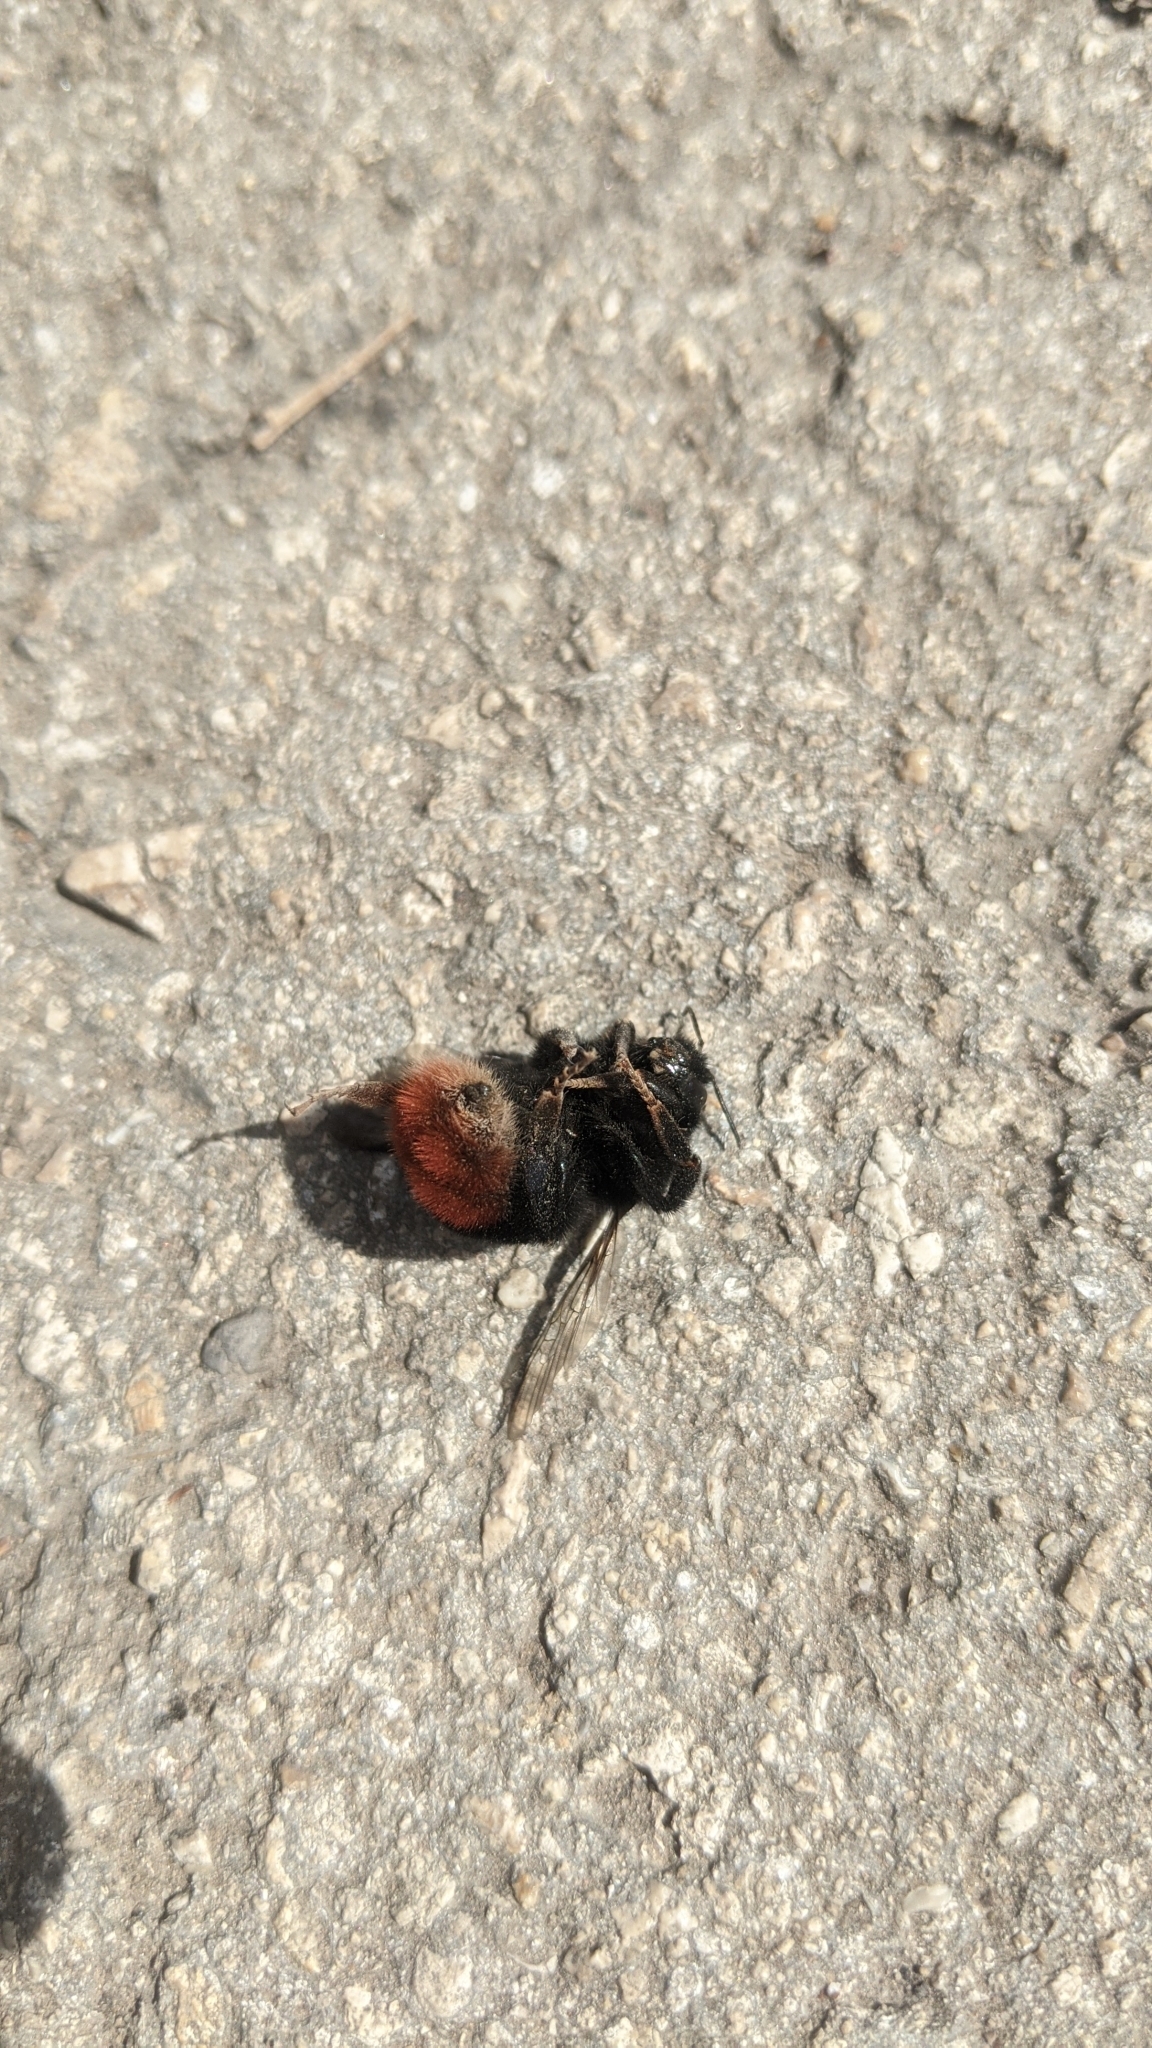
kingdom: Animalia
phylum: Arthropoda
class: Insecta
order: Hymenoptera
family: Apidae
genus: Bombus
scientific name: Bombus lapidarius
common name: Large red-tailed humble-bee
